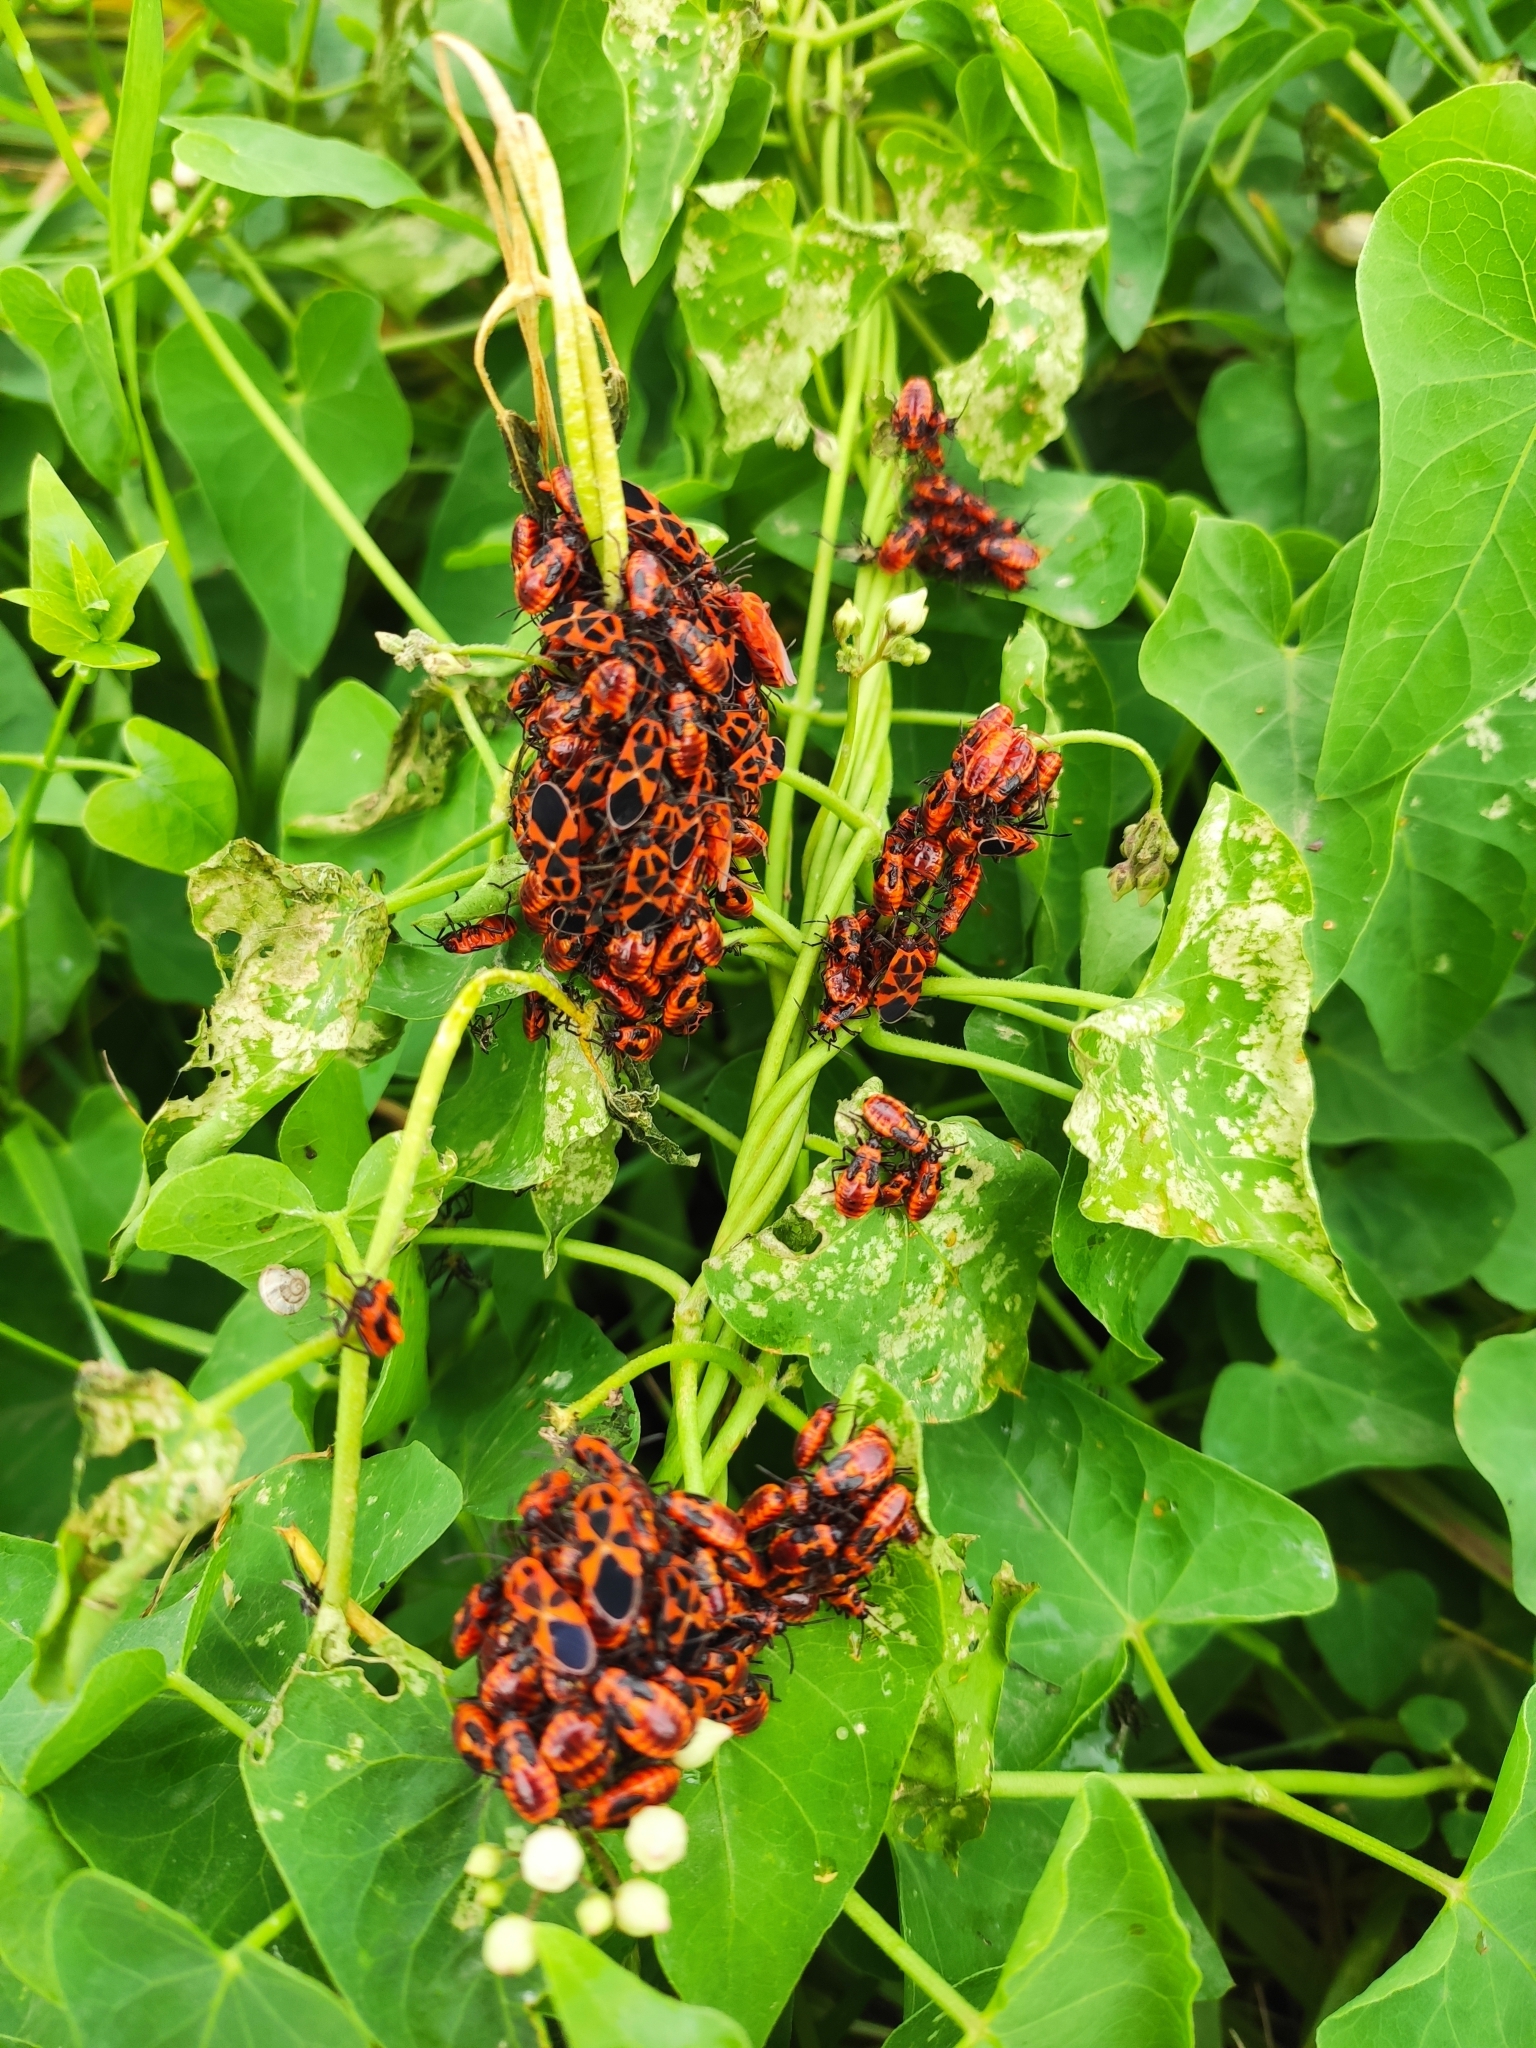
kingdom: Animalia
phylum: Arthropoda
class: Insecta
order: Hemiptera
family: Lygaeidae
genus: Tropidothorax
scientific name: Tropidothorax leucopterus
